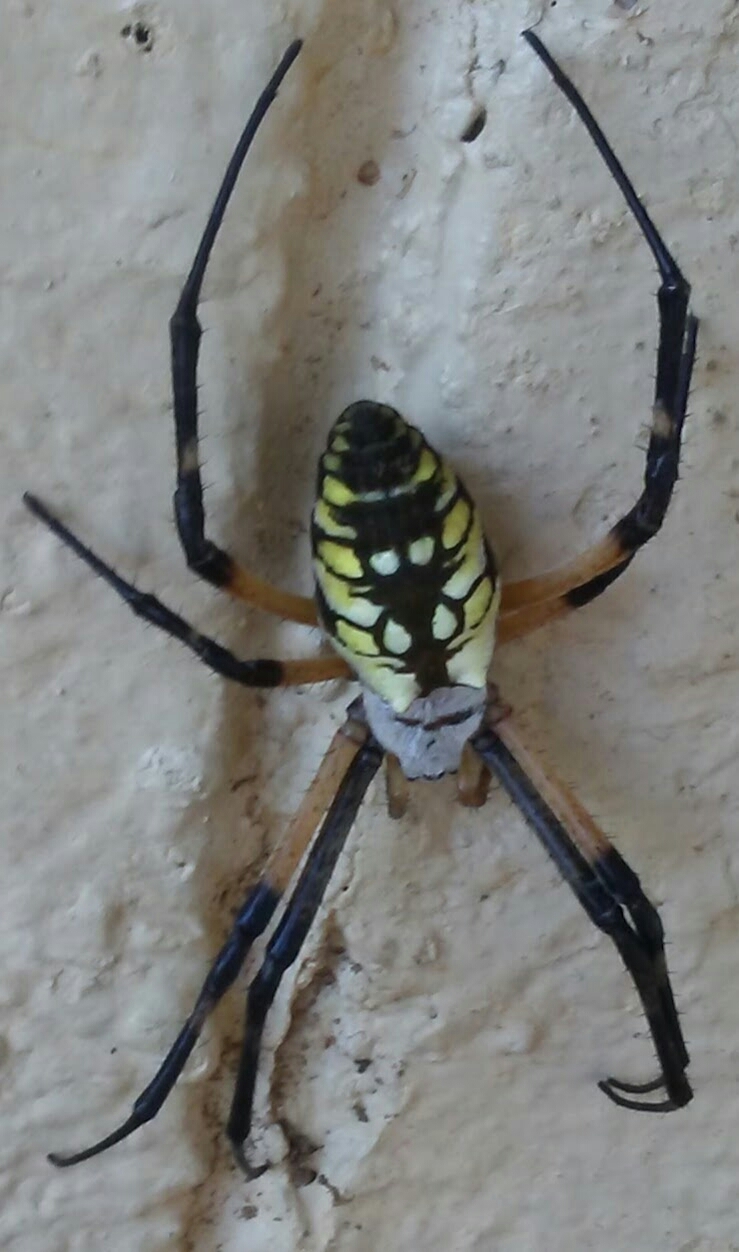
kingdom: Animalia
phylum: Arthropoda
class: Arachnida
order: Araneae
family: Araneidae
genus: Argiope
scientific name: Argiope aurantia
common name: Orb weavers
